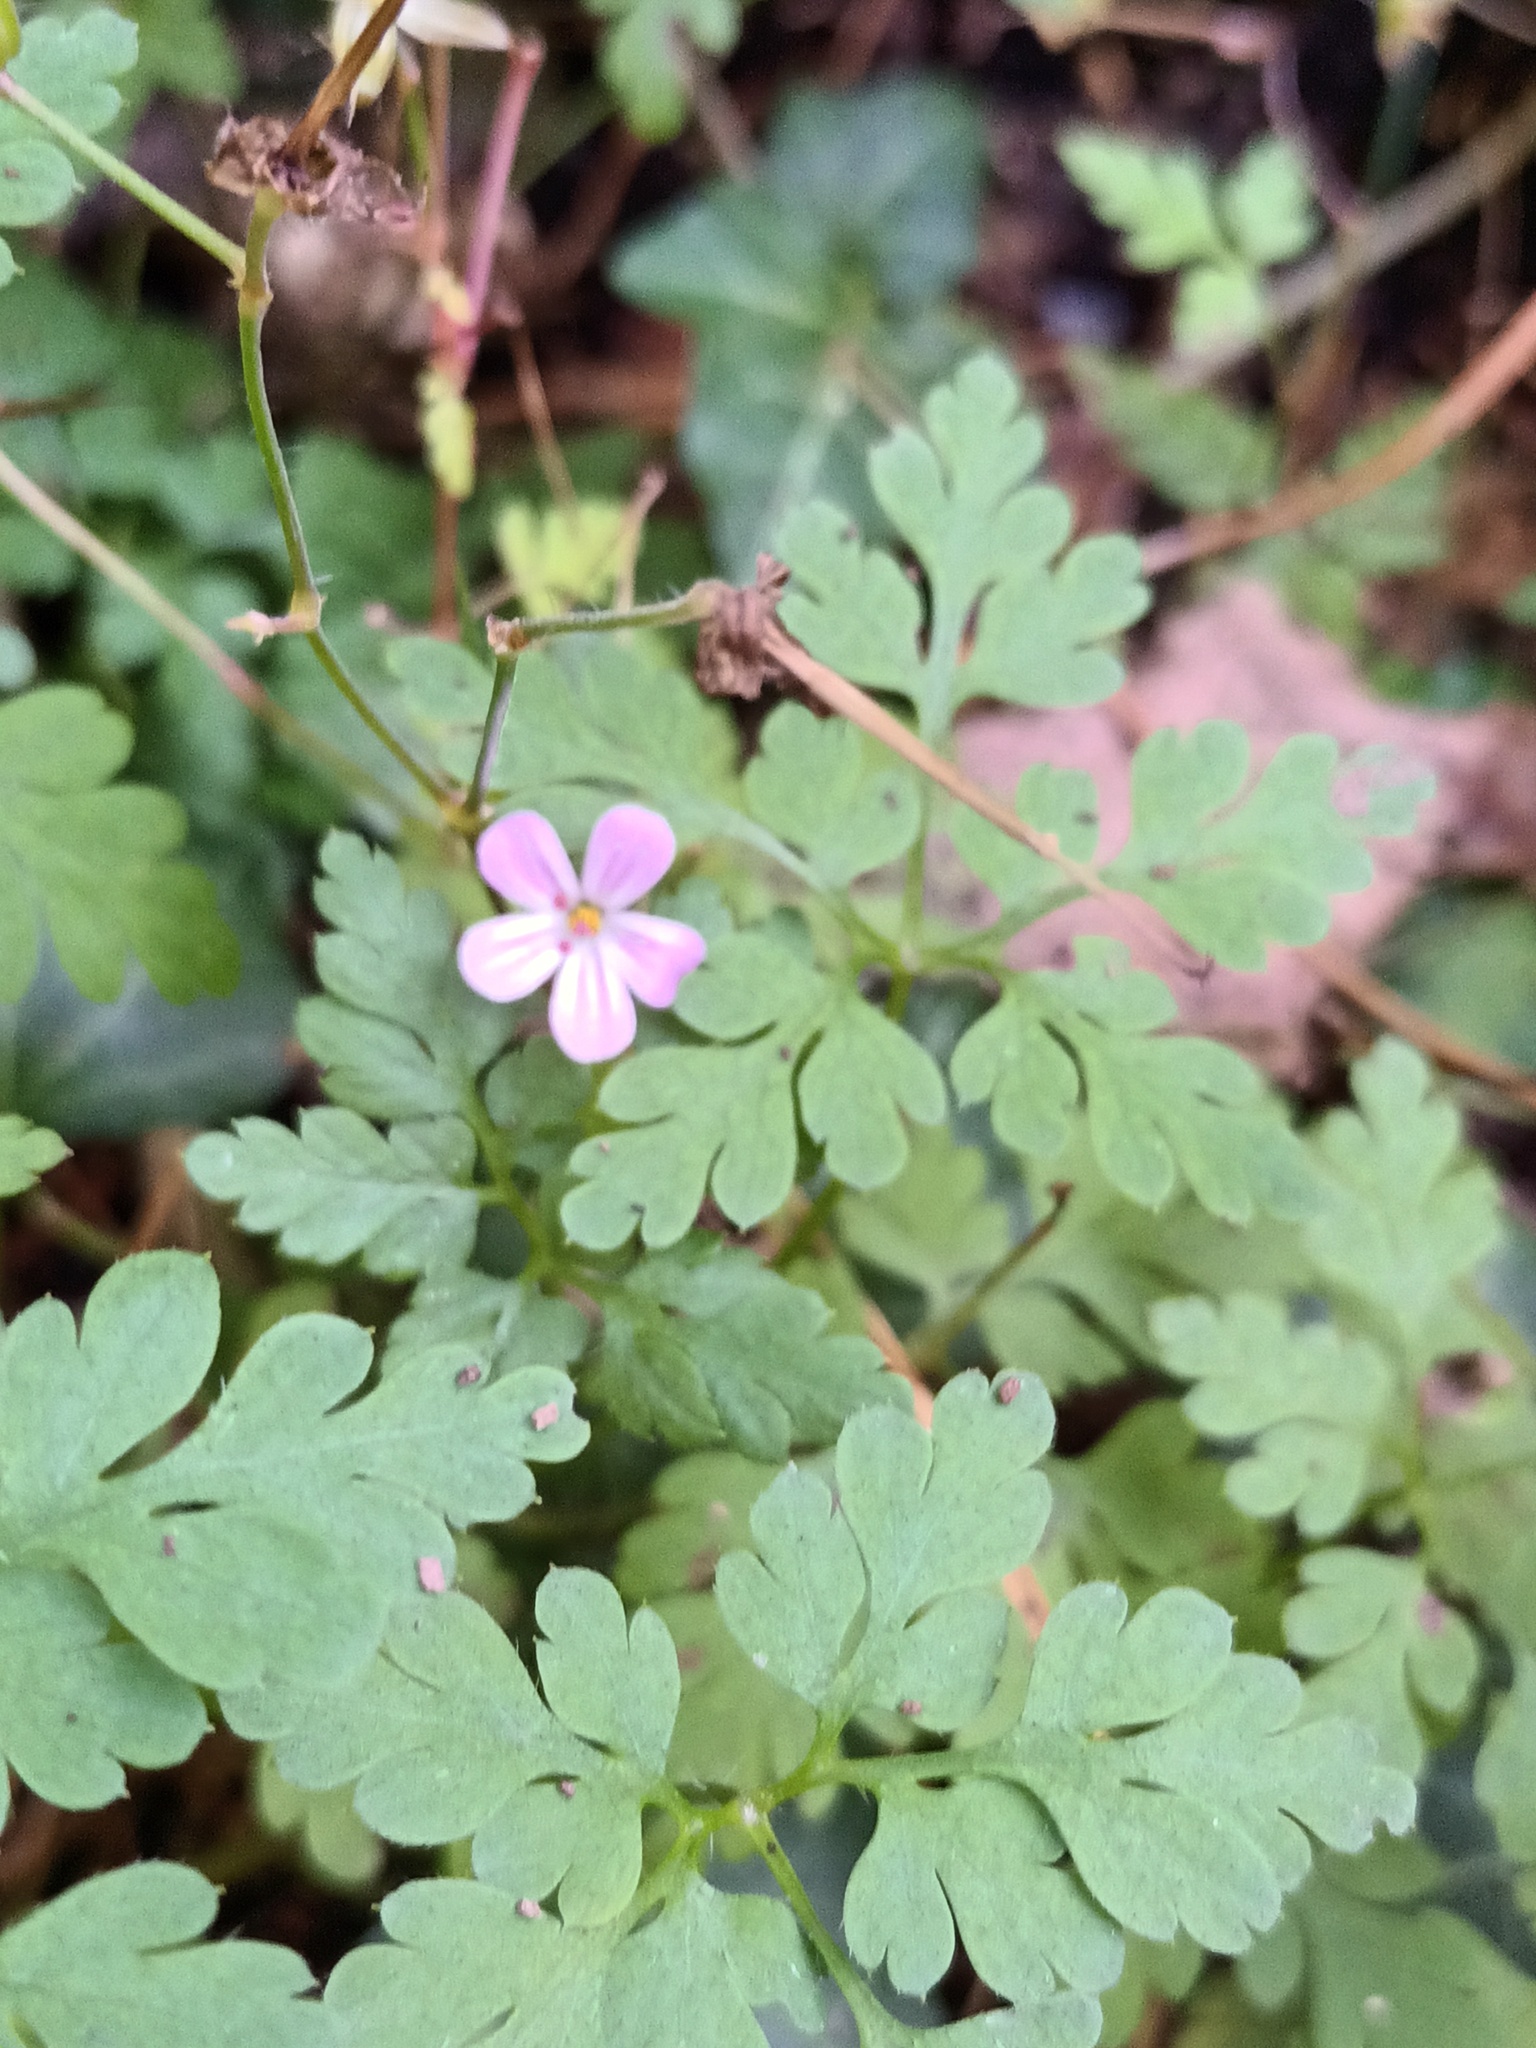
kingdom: Plantae
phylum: Tracheophyta
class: Magnoliopsida
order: Geraniales
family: Geraniaceae
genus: Geranium
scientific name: Geranium robertianum
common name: Herb-robert
